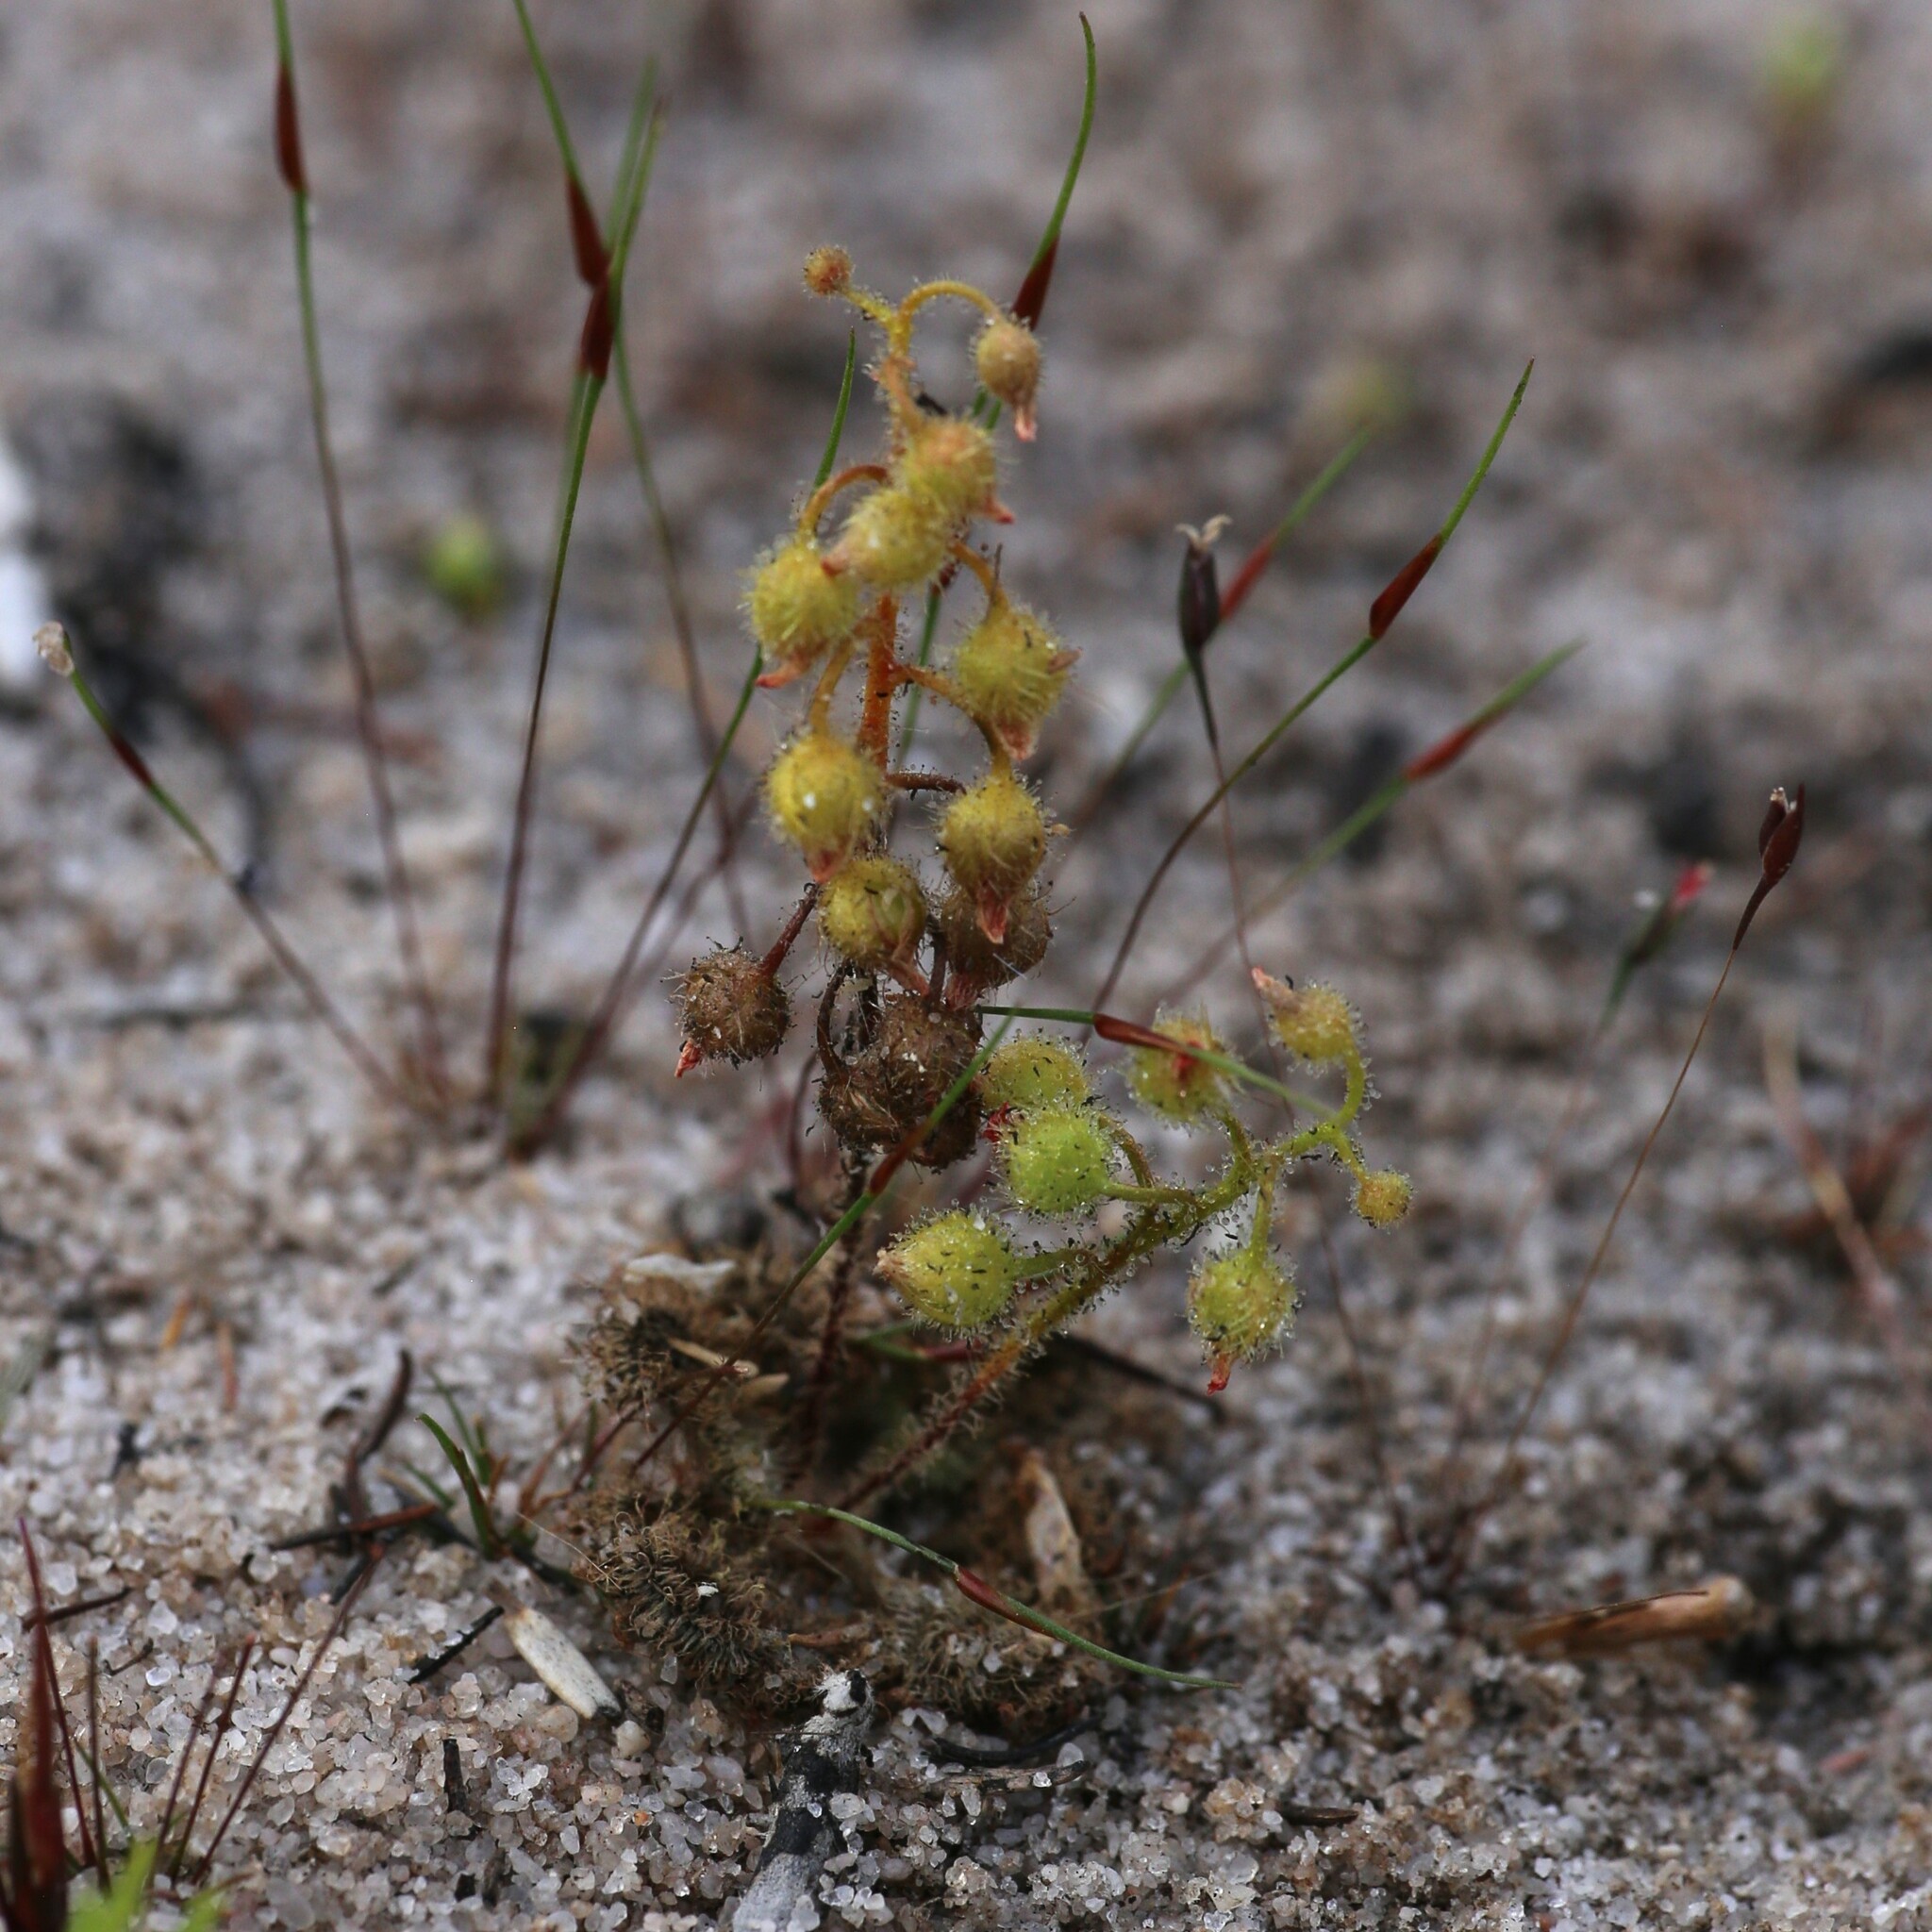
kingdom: Plantae
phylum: Tracheophyta
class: Magnoliopsida
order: Caryophyllales
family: Droseraceae
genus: Drosera
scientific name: Drosera glanduligera
